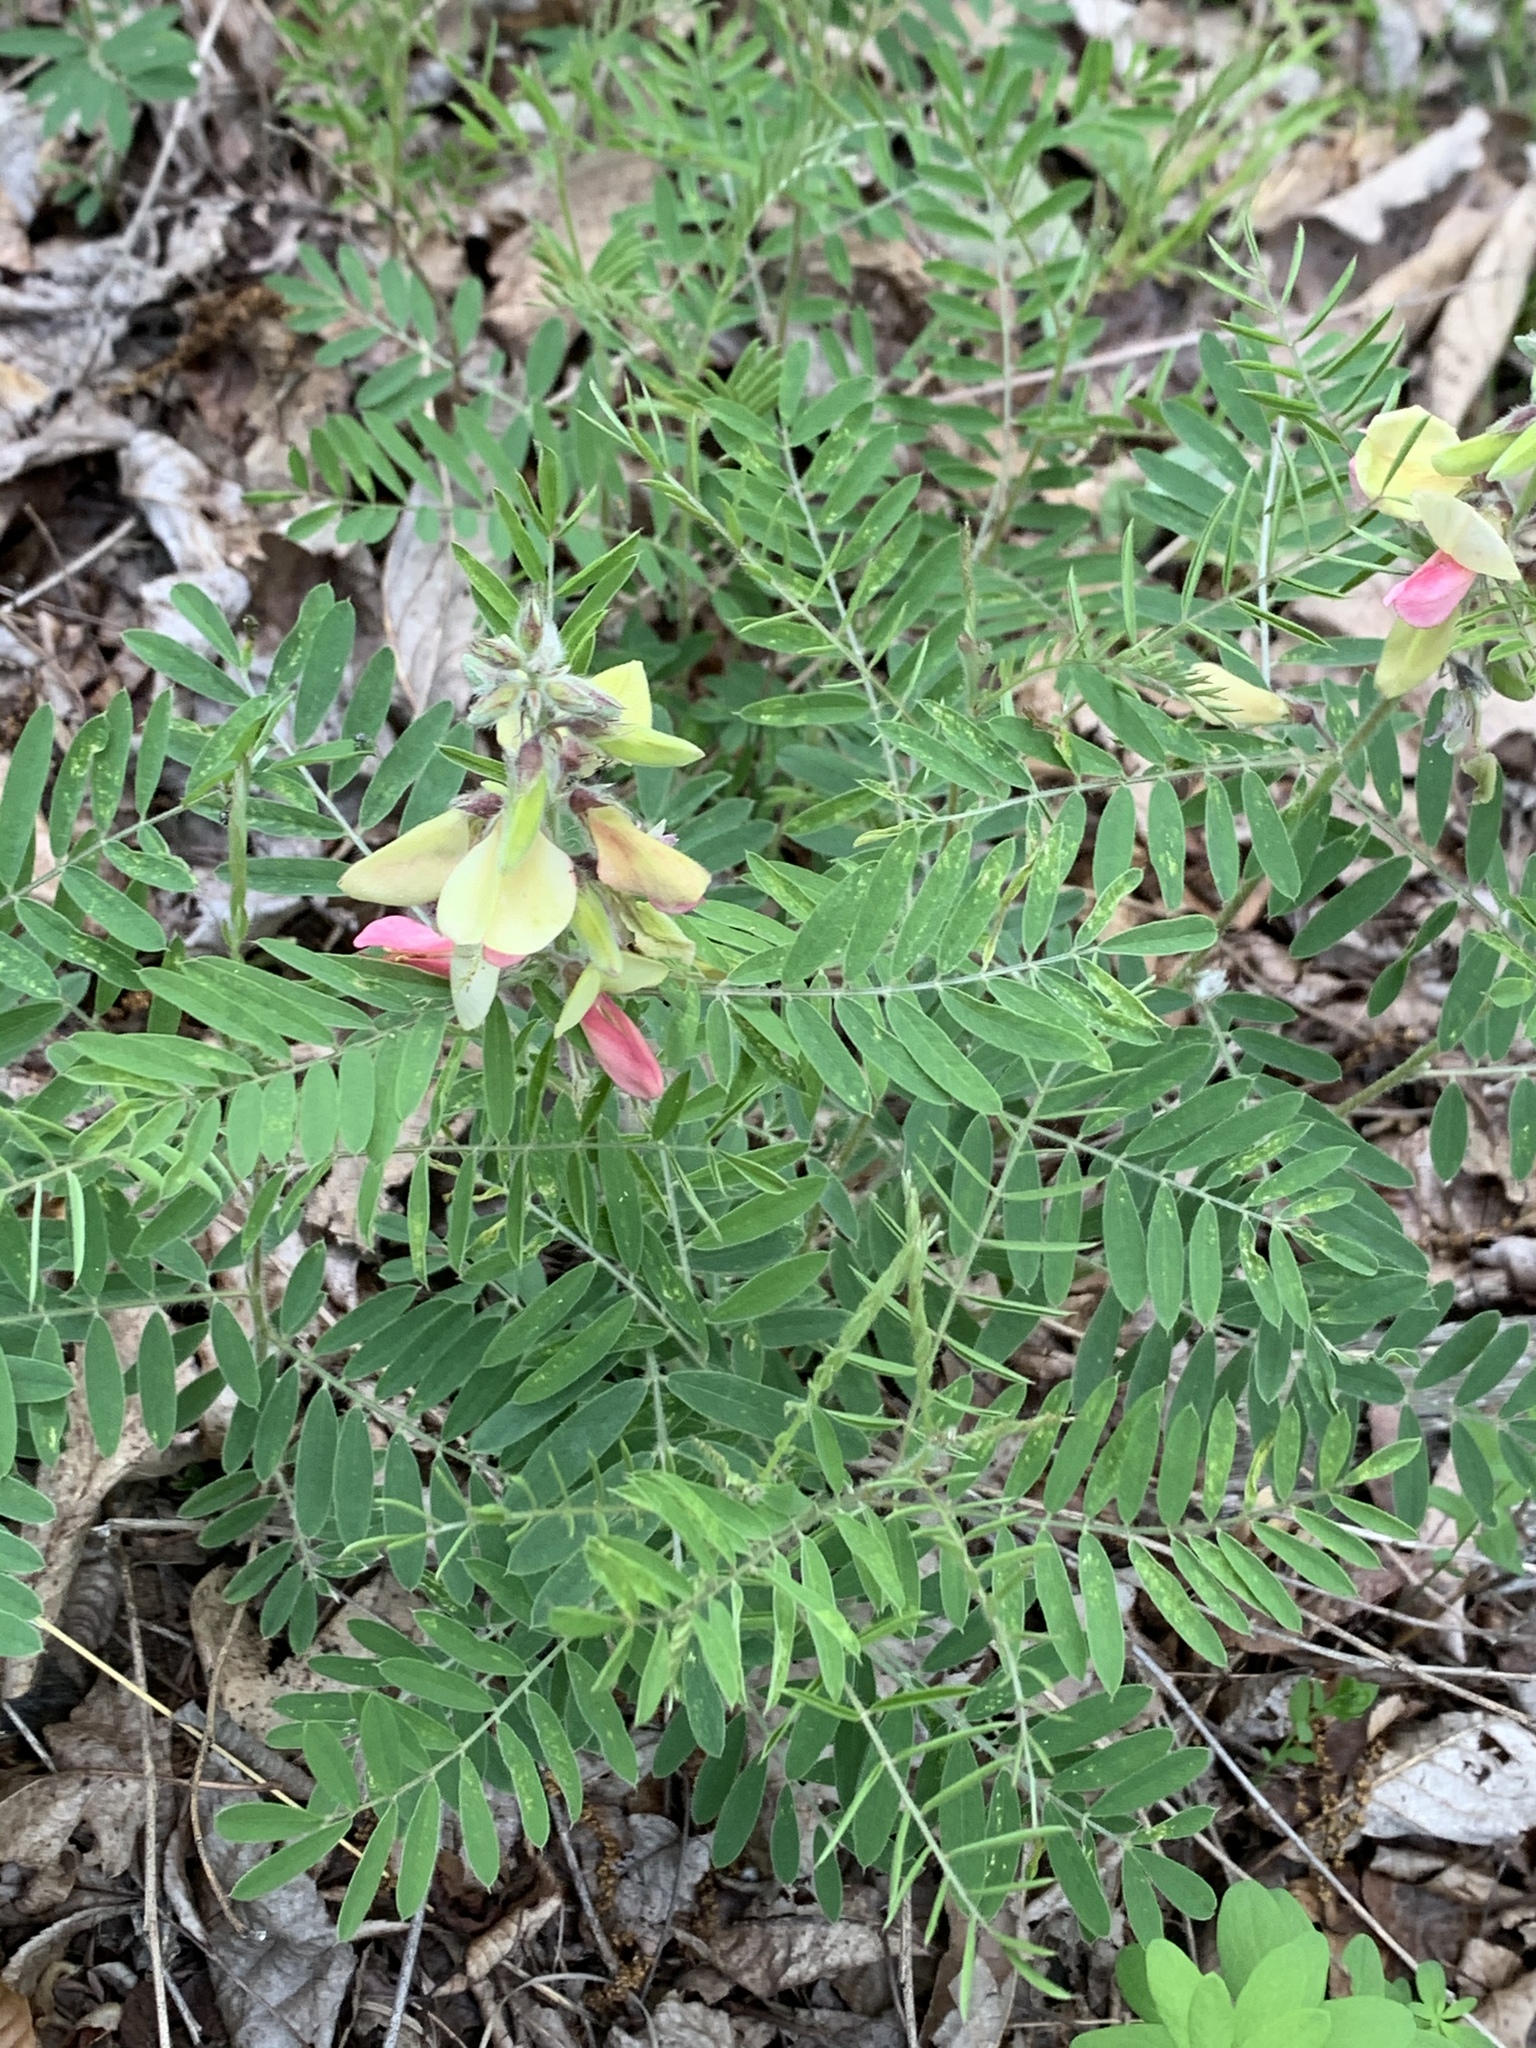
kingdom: Plantae
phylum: Tracheophyta
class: Magnoliopsida
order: Fabales
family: Fabaceae
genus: Tephrosia
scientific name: Tephrosia virginiana
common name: Rabbit-pea
